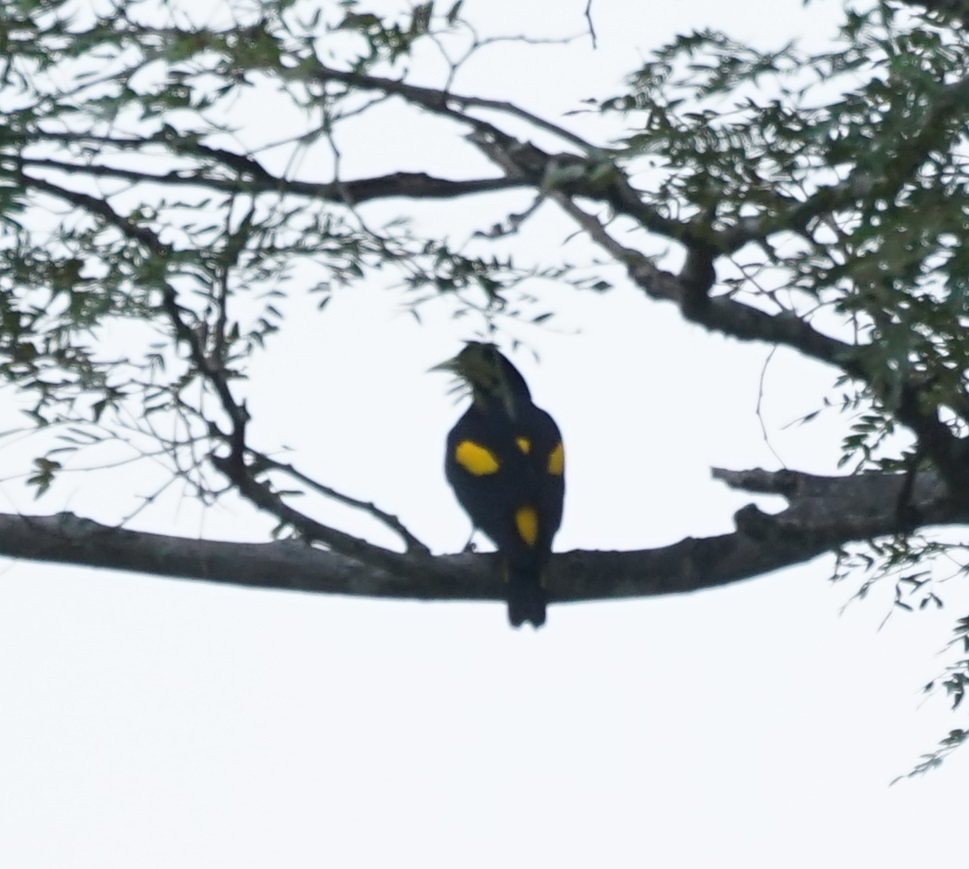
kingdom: Animalia
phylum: Chordata
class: Aves
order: Passeriformes
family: Icteridae
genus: Cacicus
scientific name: Cacicus cela
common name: Yellow-rumped cacique
